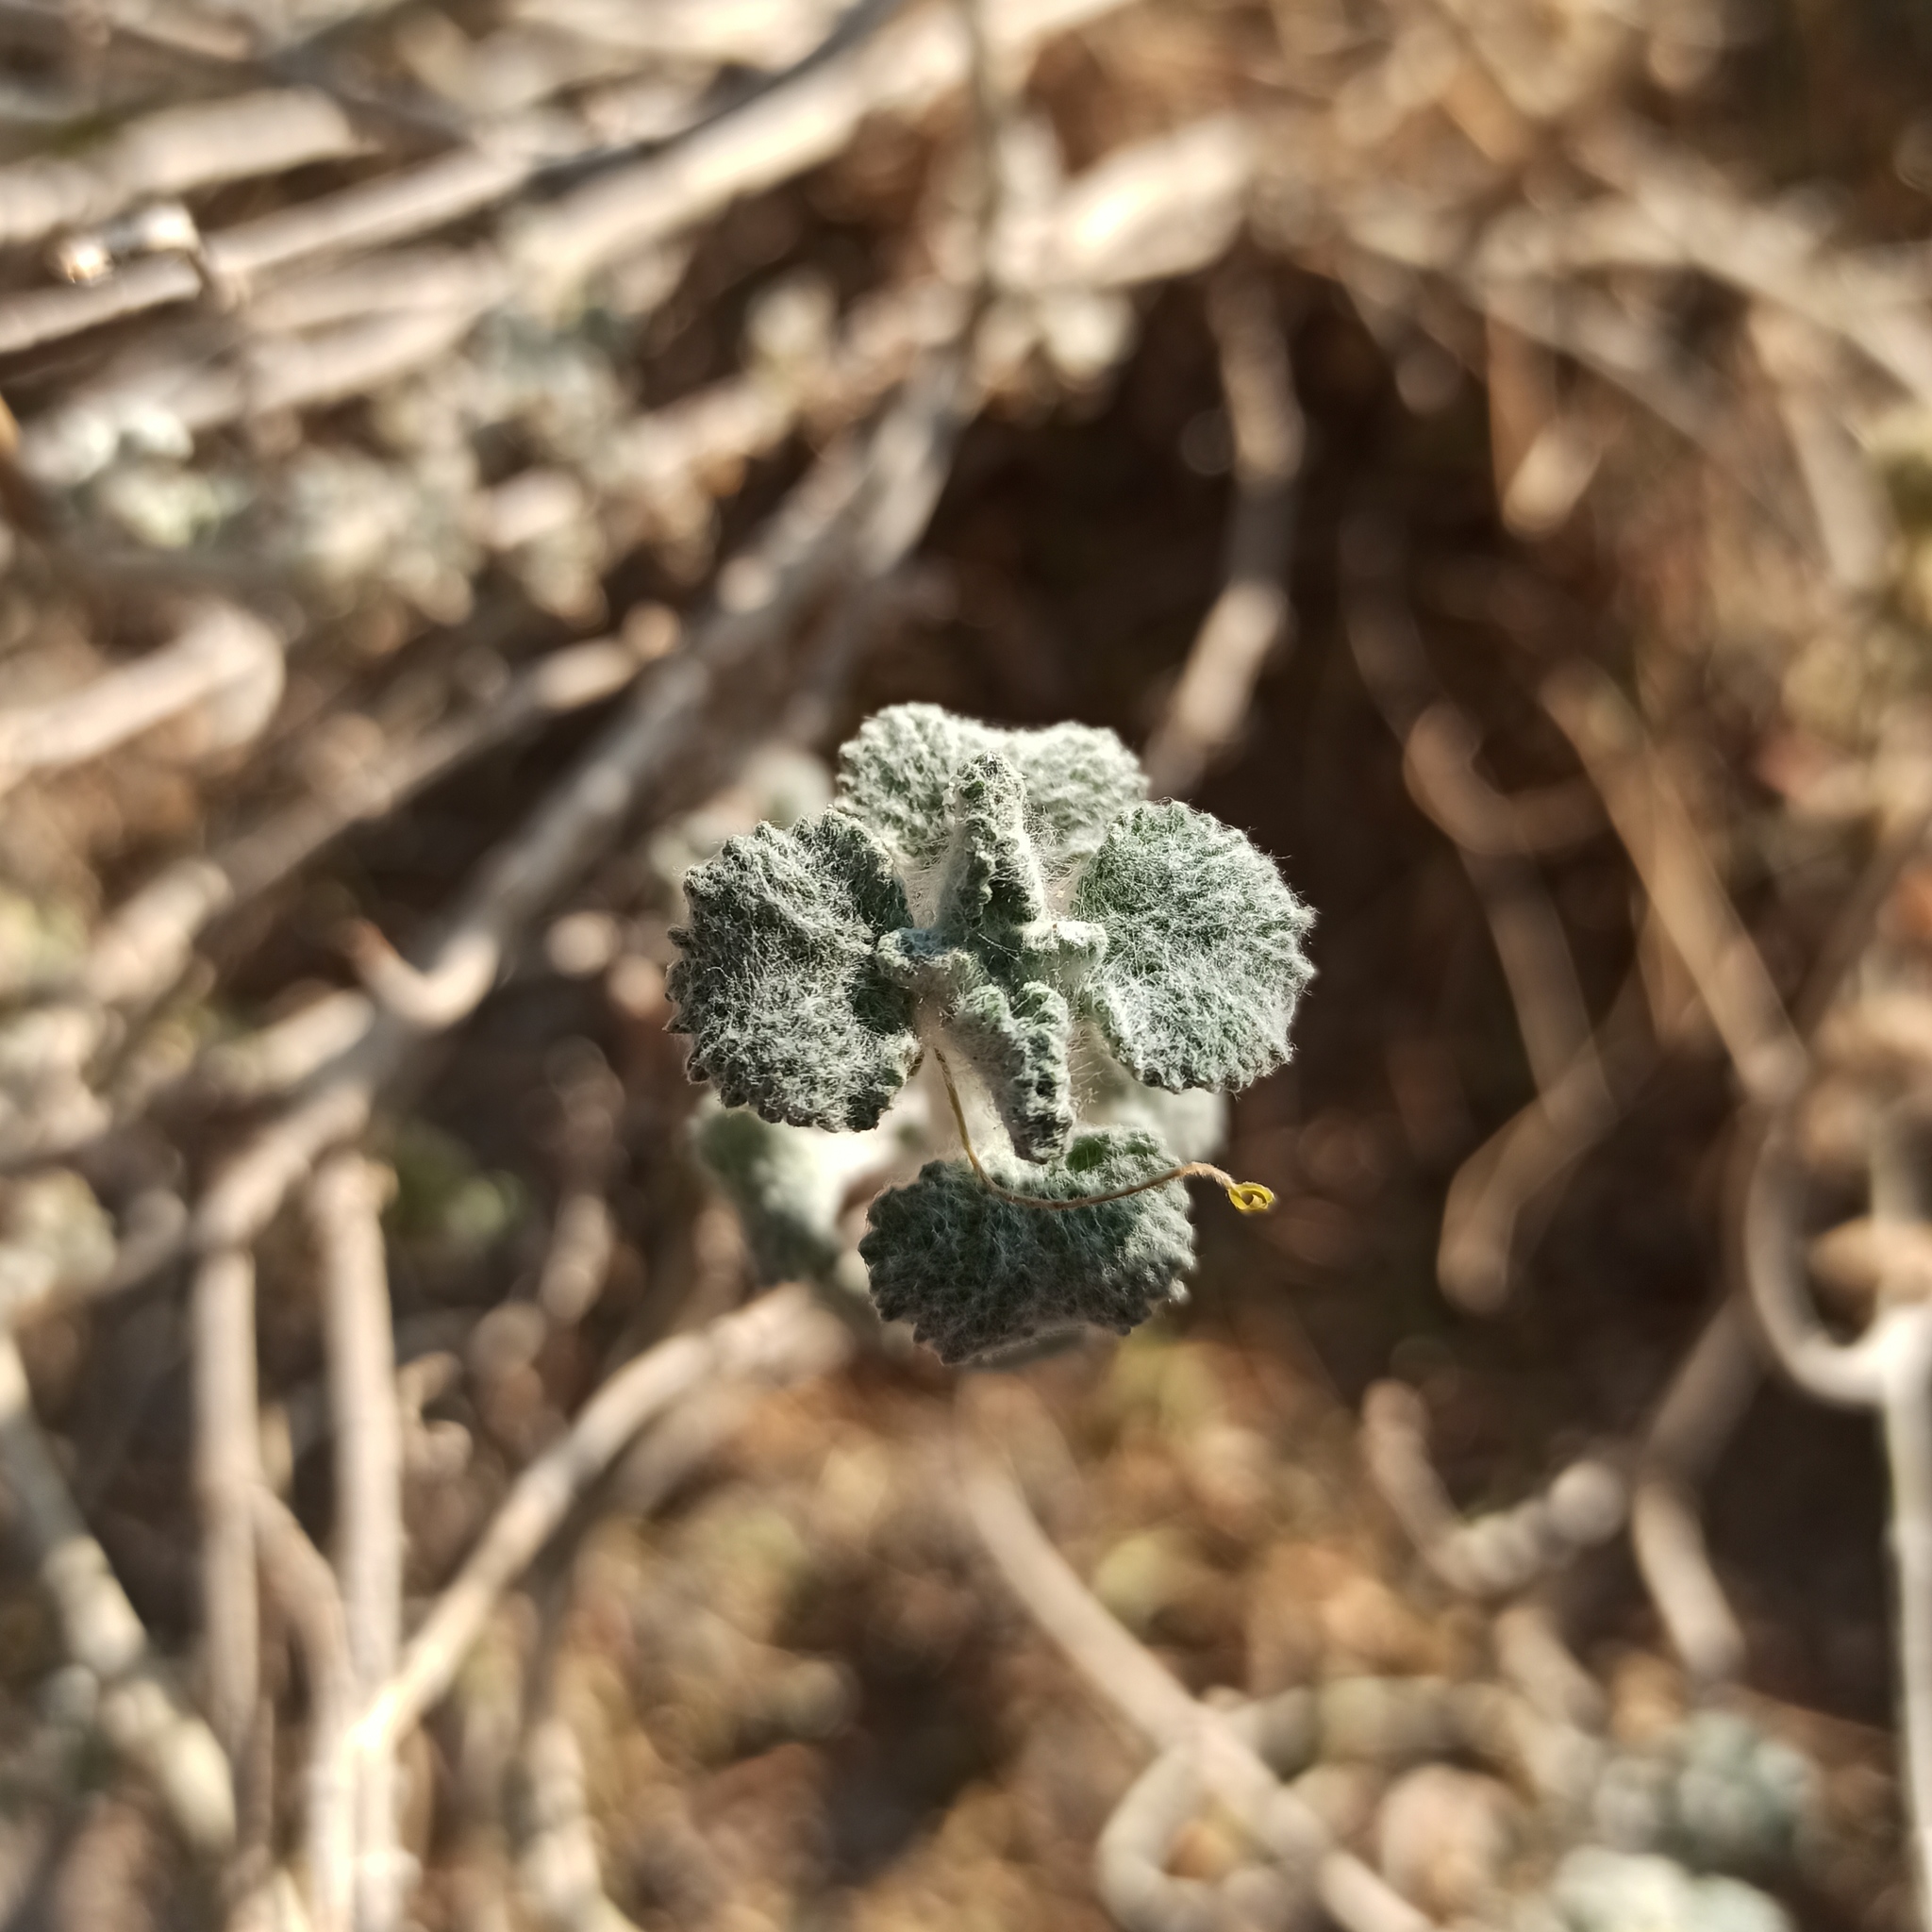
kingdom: Plantae
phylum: Tracheophyta
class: Magnoliopsida
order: Lamiales
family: Lamiaceae
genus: Marrubium
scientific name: Marrubium vulgare
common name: Horehound
